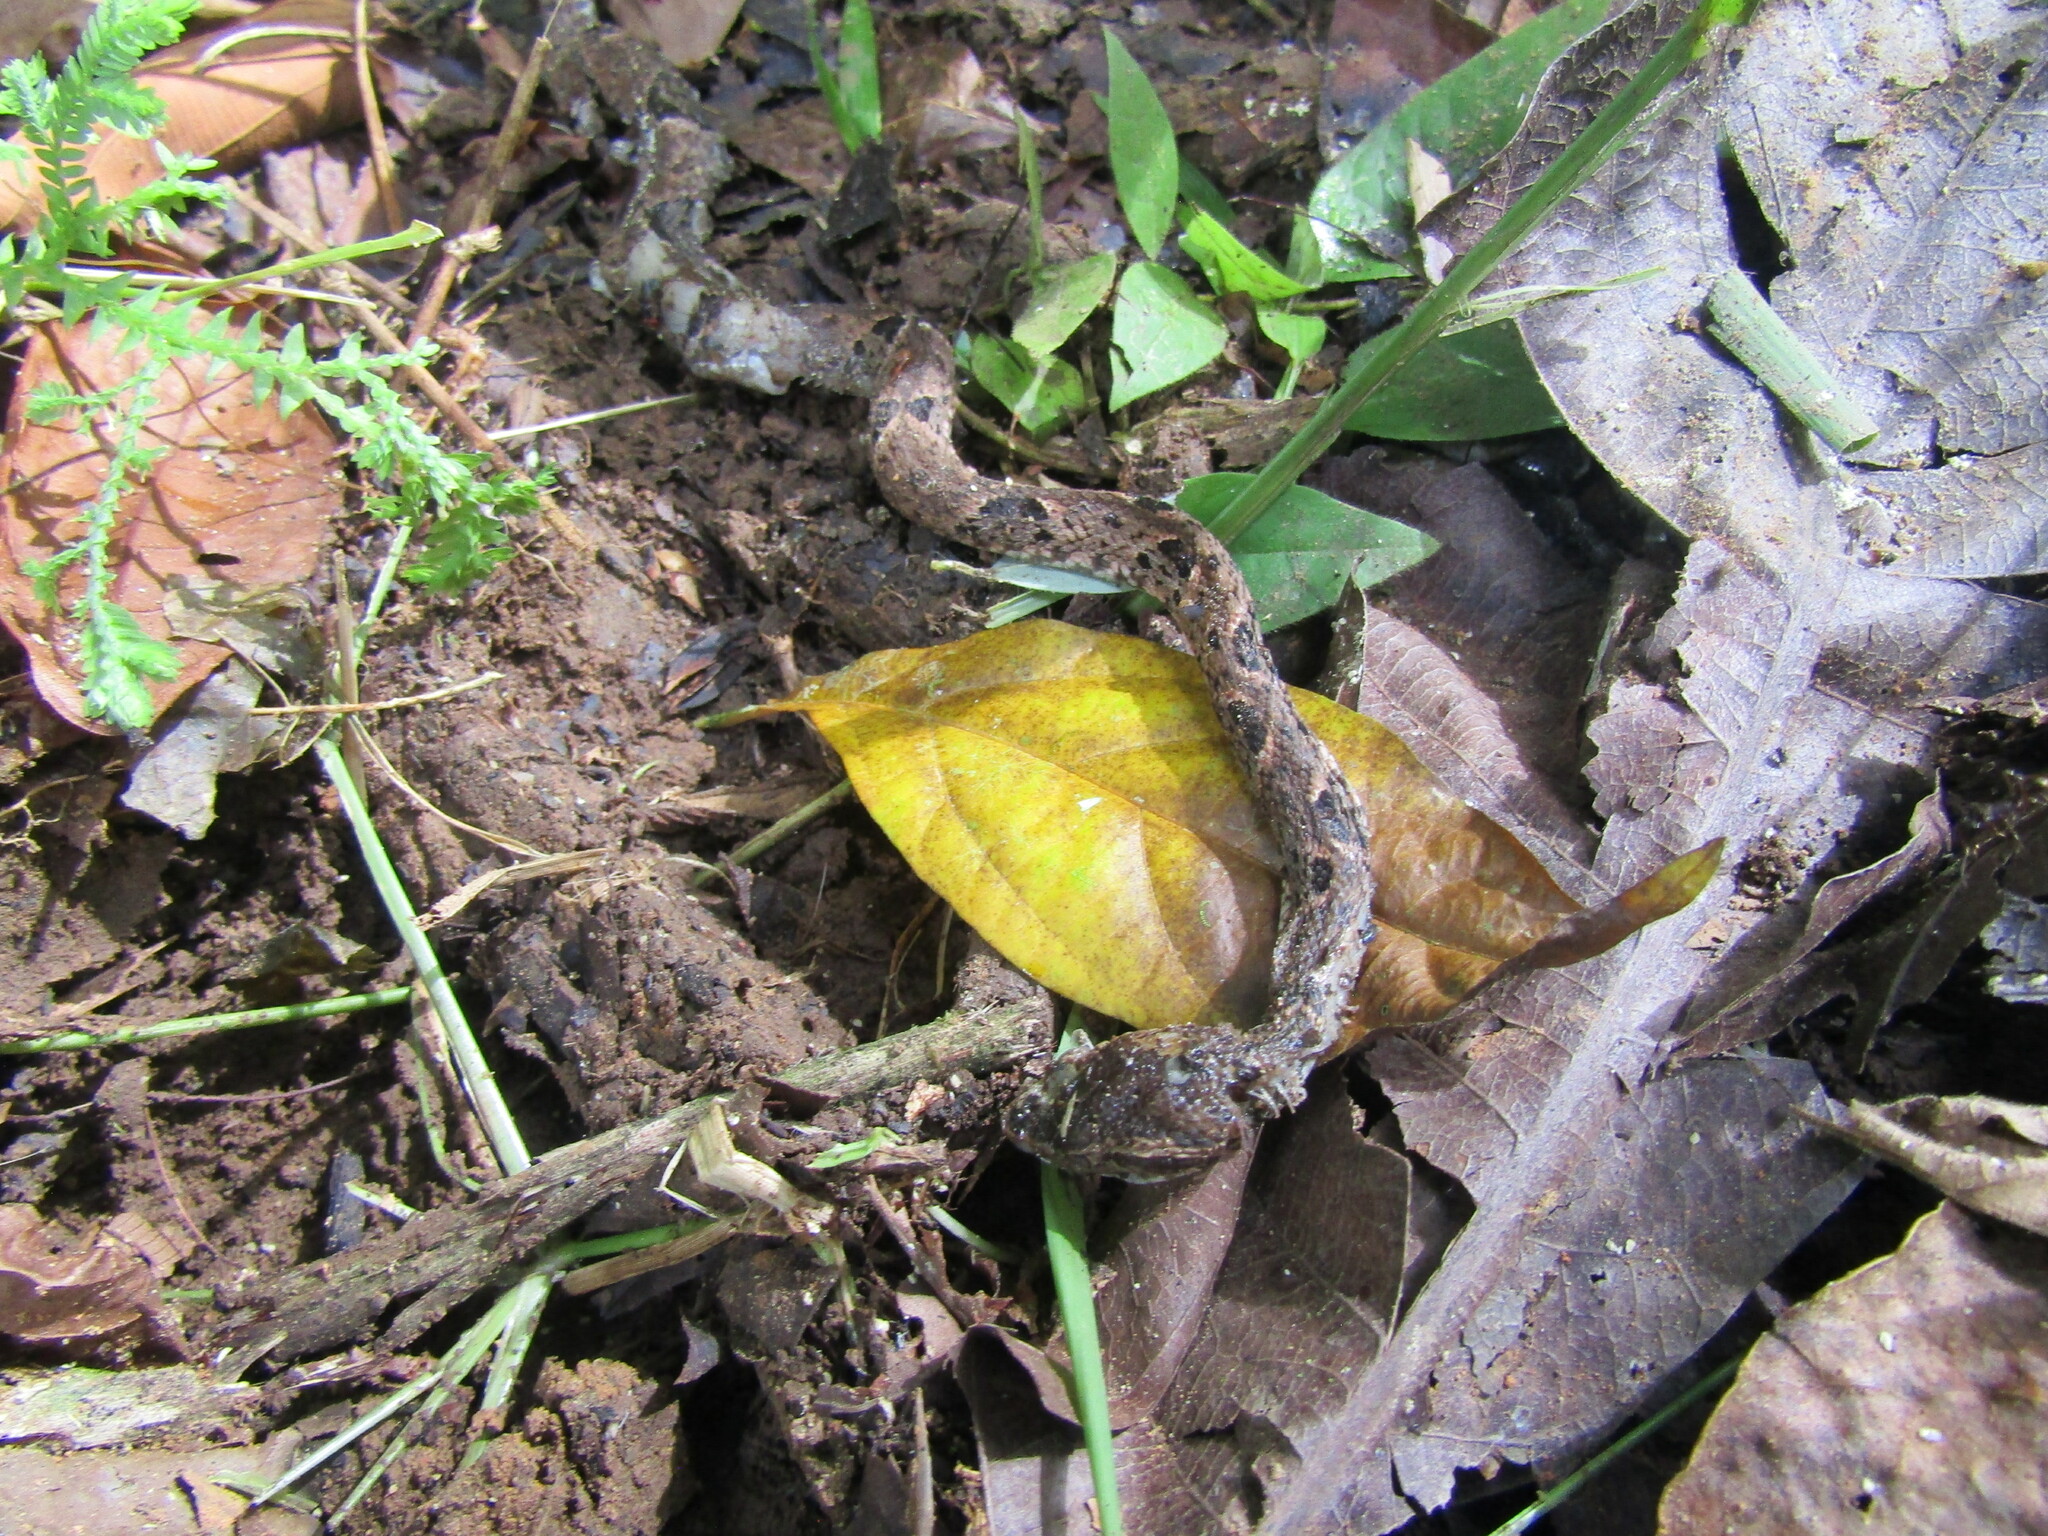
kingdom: Animalia
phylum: Chordata
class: Squamata
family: Viperidae
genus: Bothrops
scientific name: Bothrops asper
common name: Terciopelo
